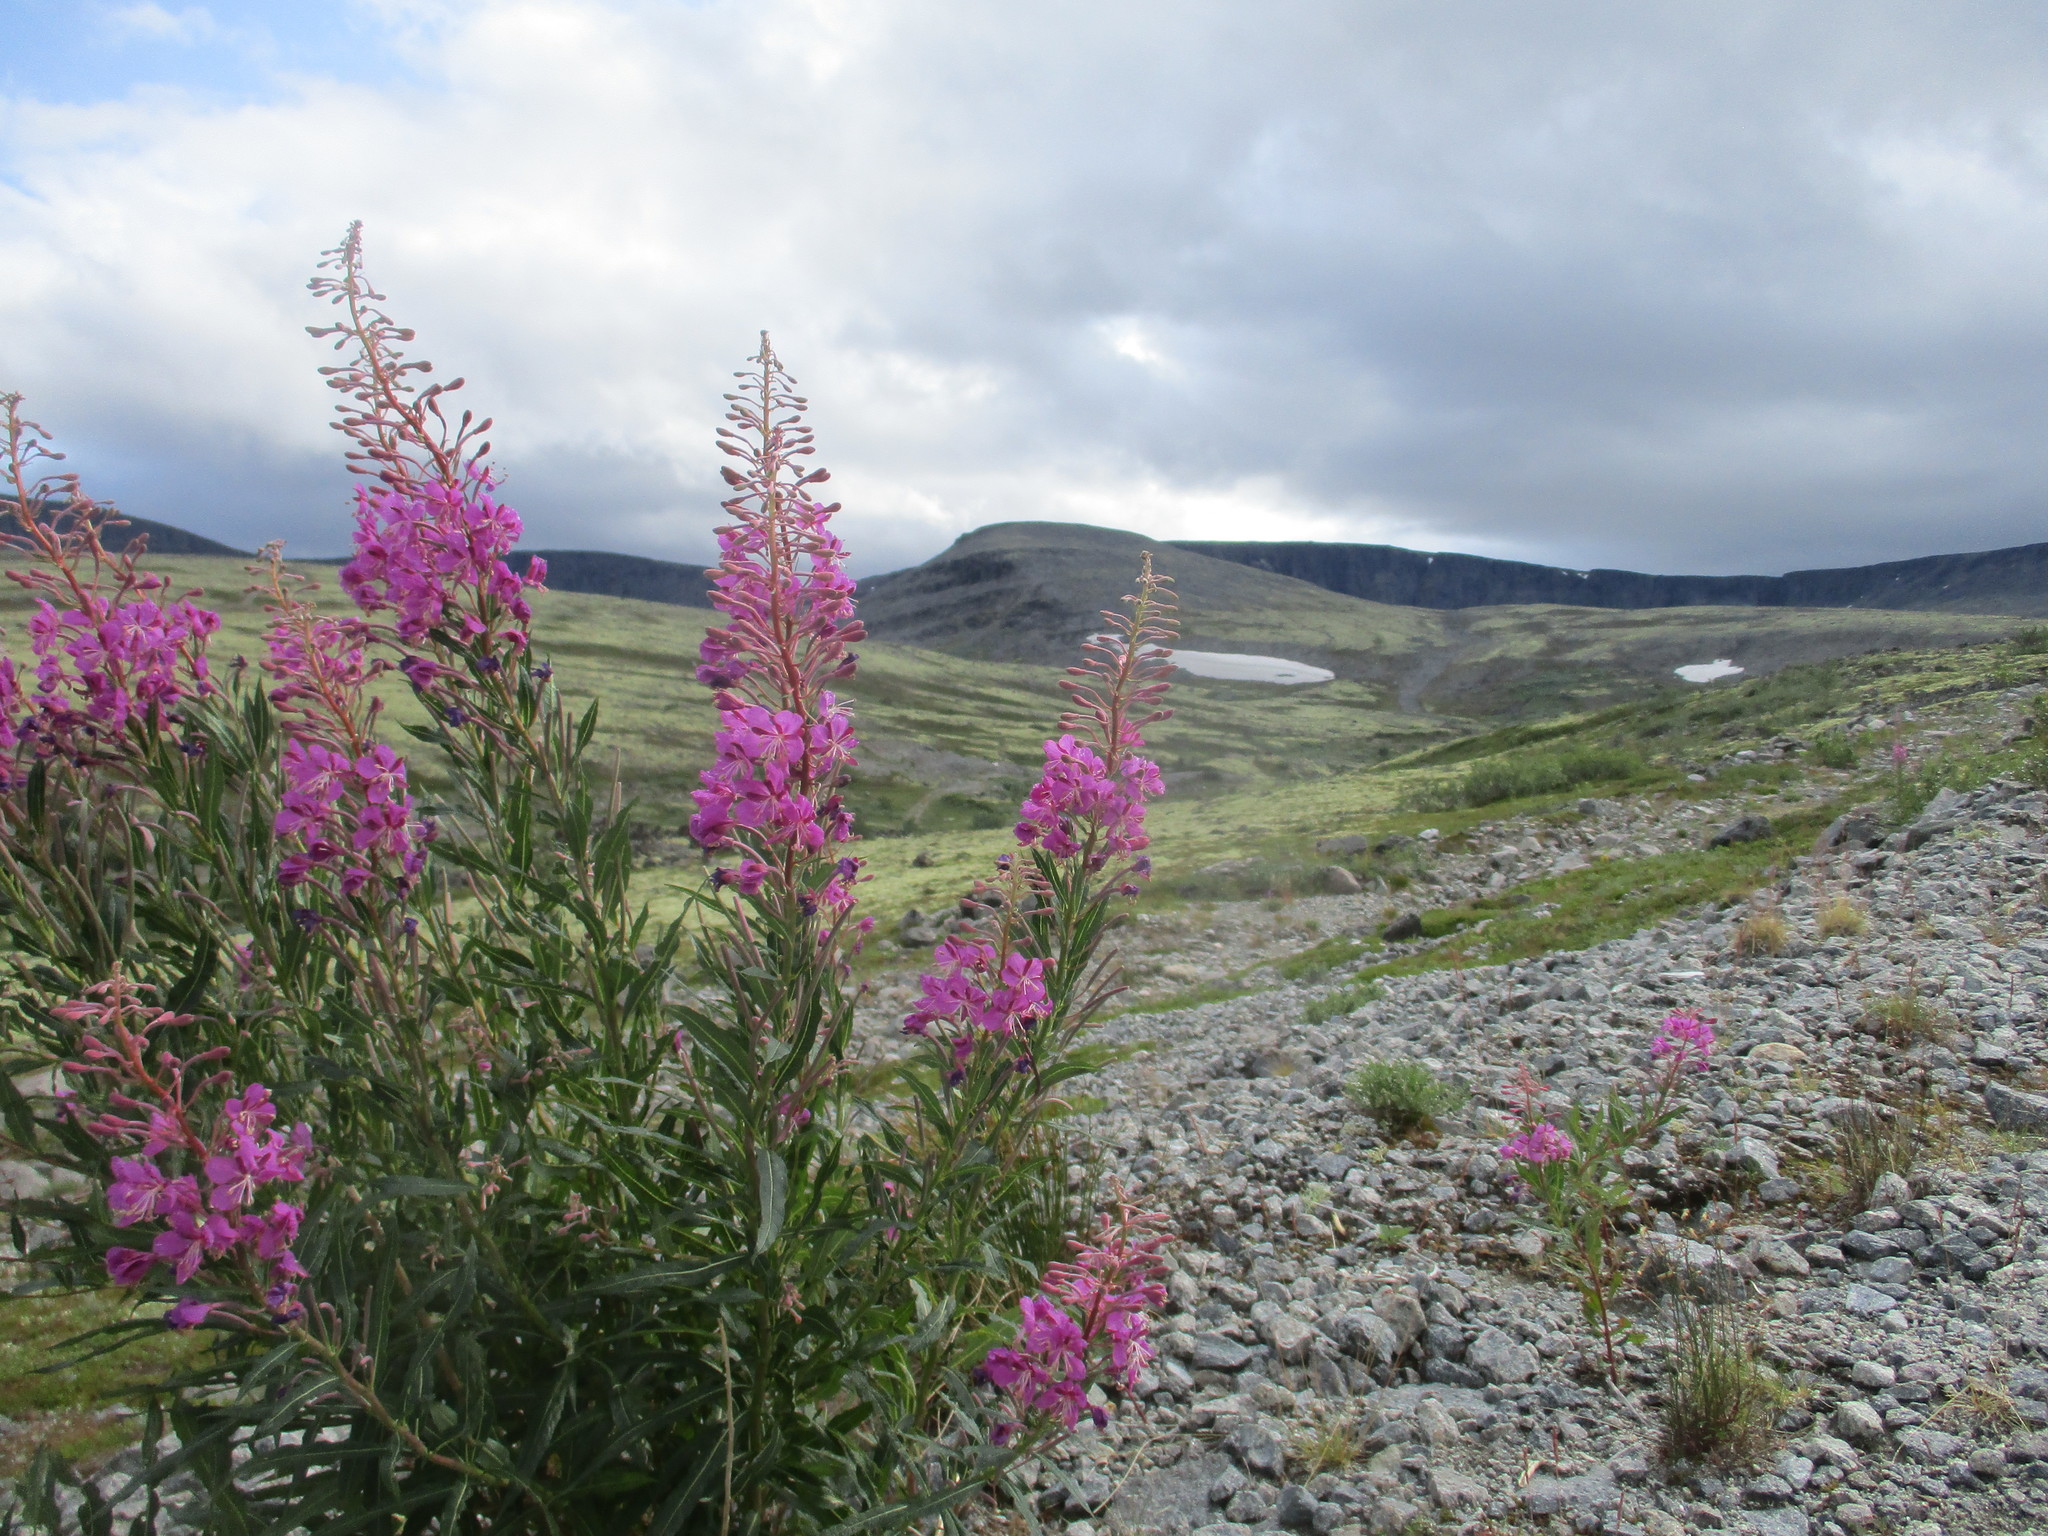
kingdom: Plantae
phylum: Tracheophyta
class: Magnoliopsida
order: Myrtales
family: Onagraceae
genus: Chamaenerion
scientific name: Chamaenerion angustifolium
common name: Fireweed
